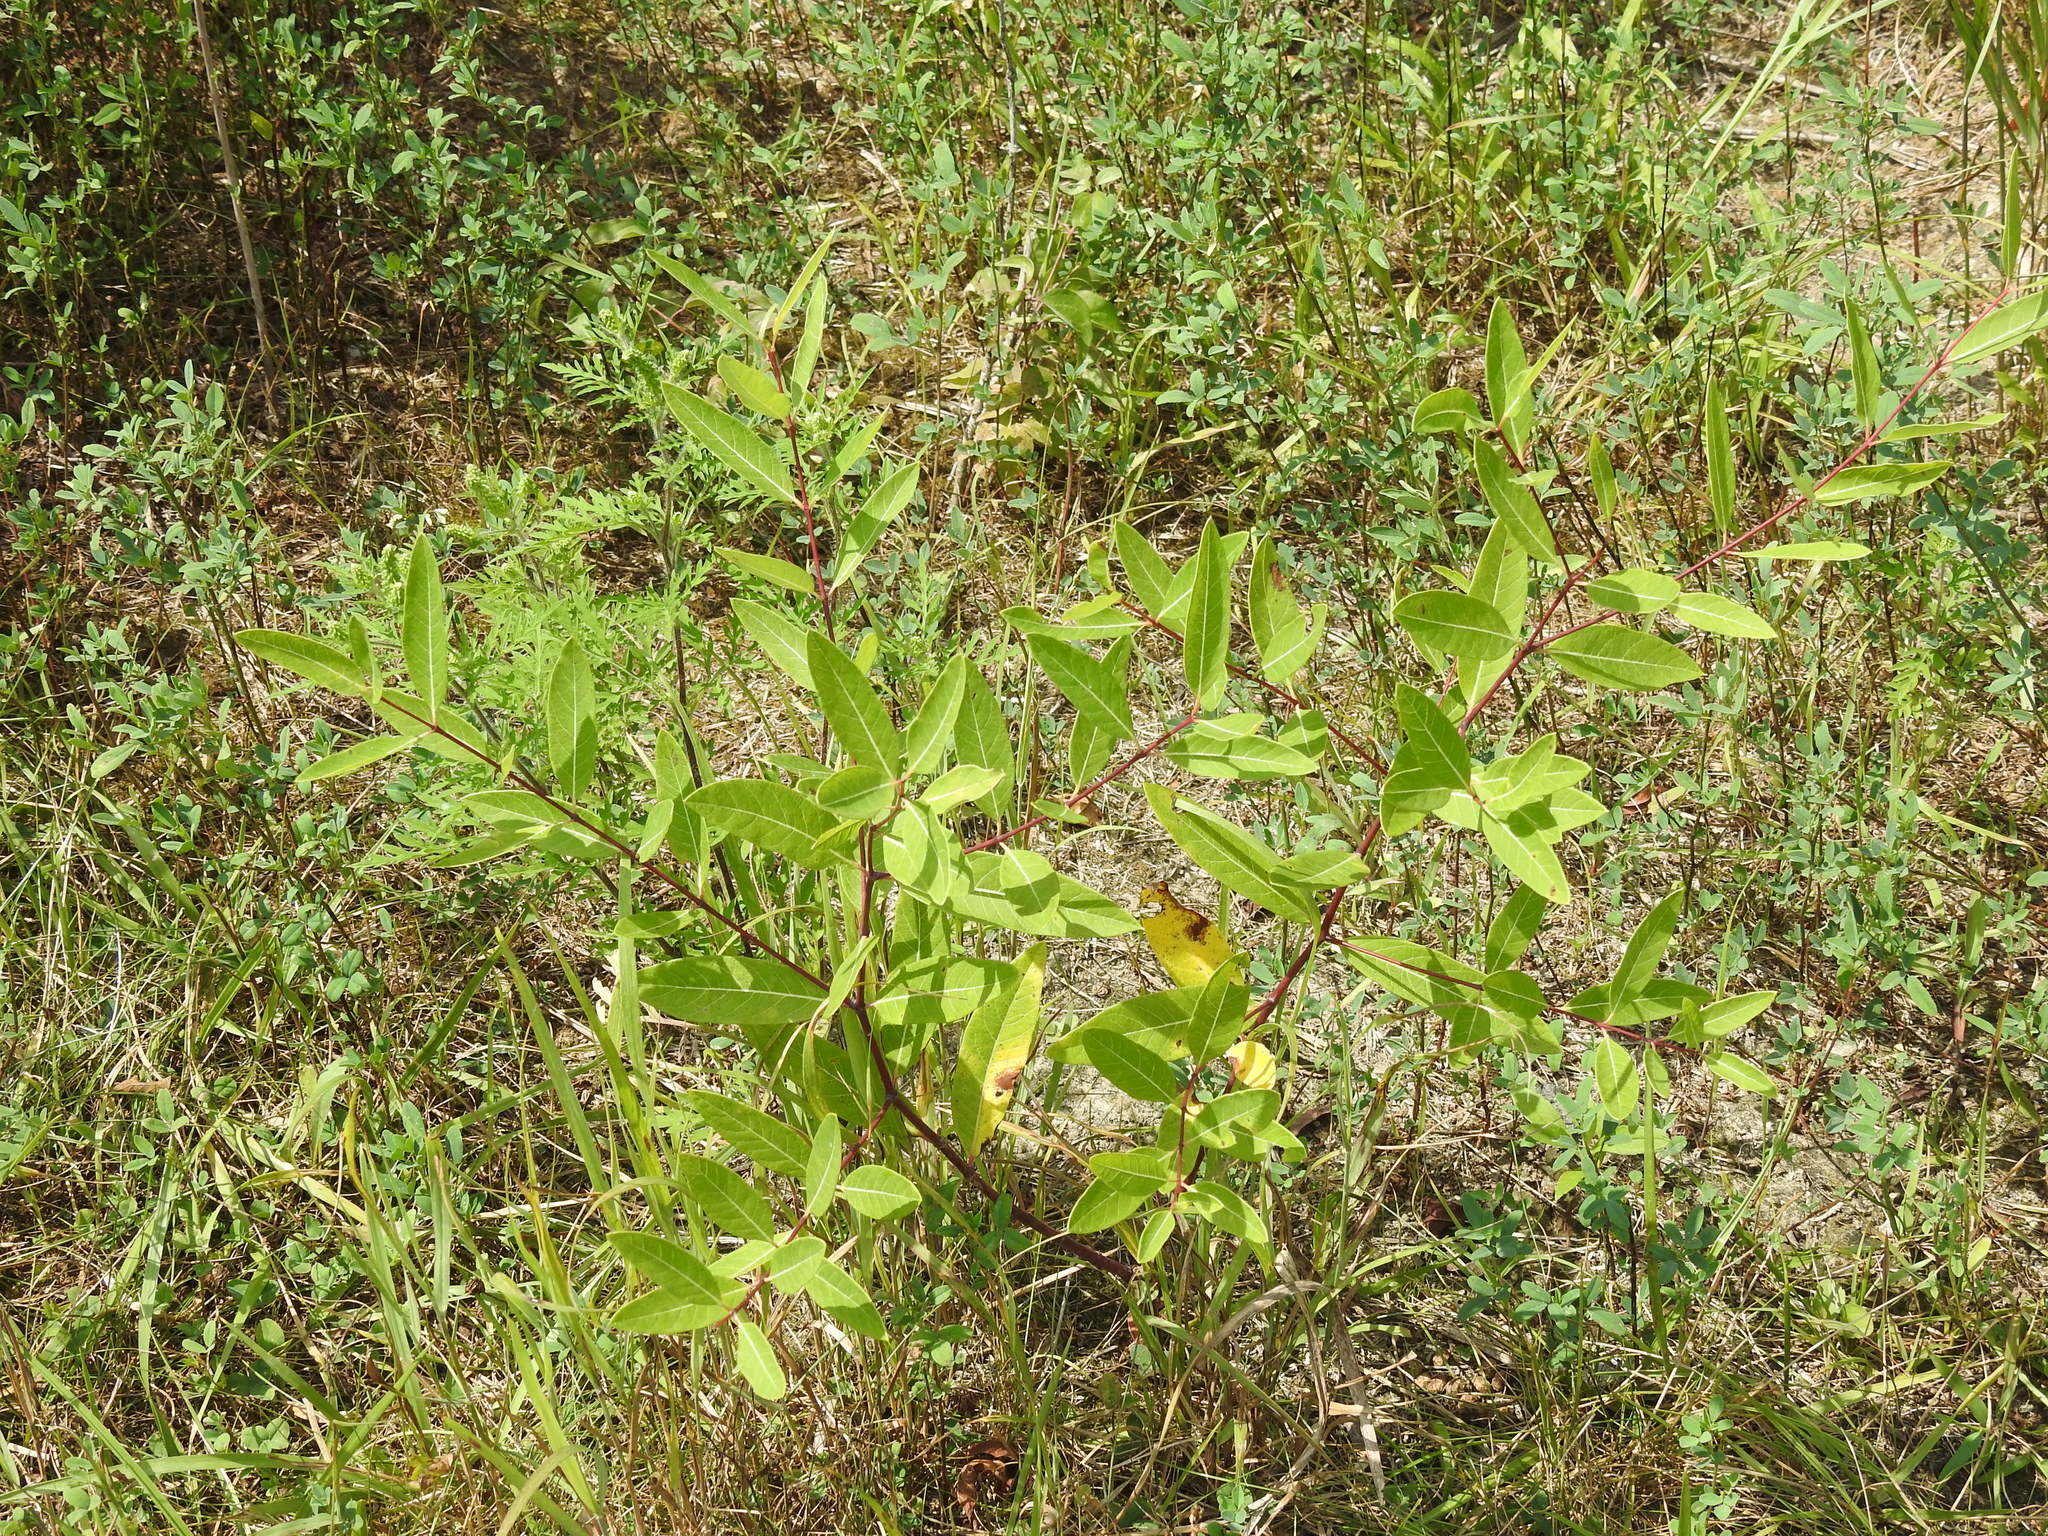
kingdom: Plantae
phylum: Tracheophyta
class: Magnoliopsida
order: Gentianales
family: Apocynaceae
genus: Apocynum
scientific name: Apocynum cannabinum
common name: Hemp dogbane
